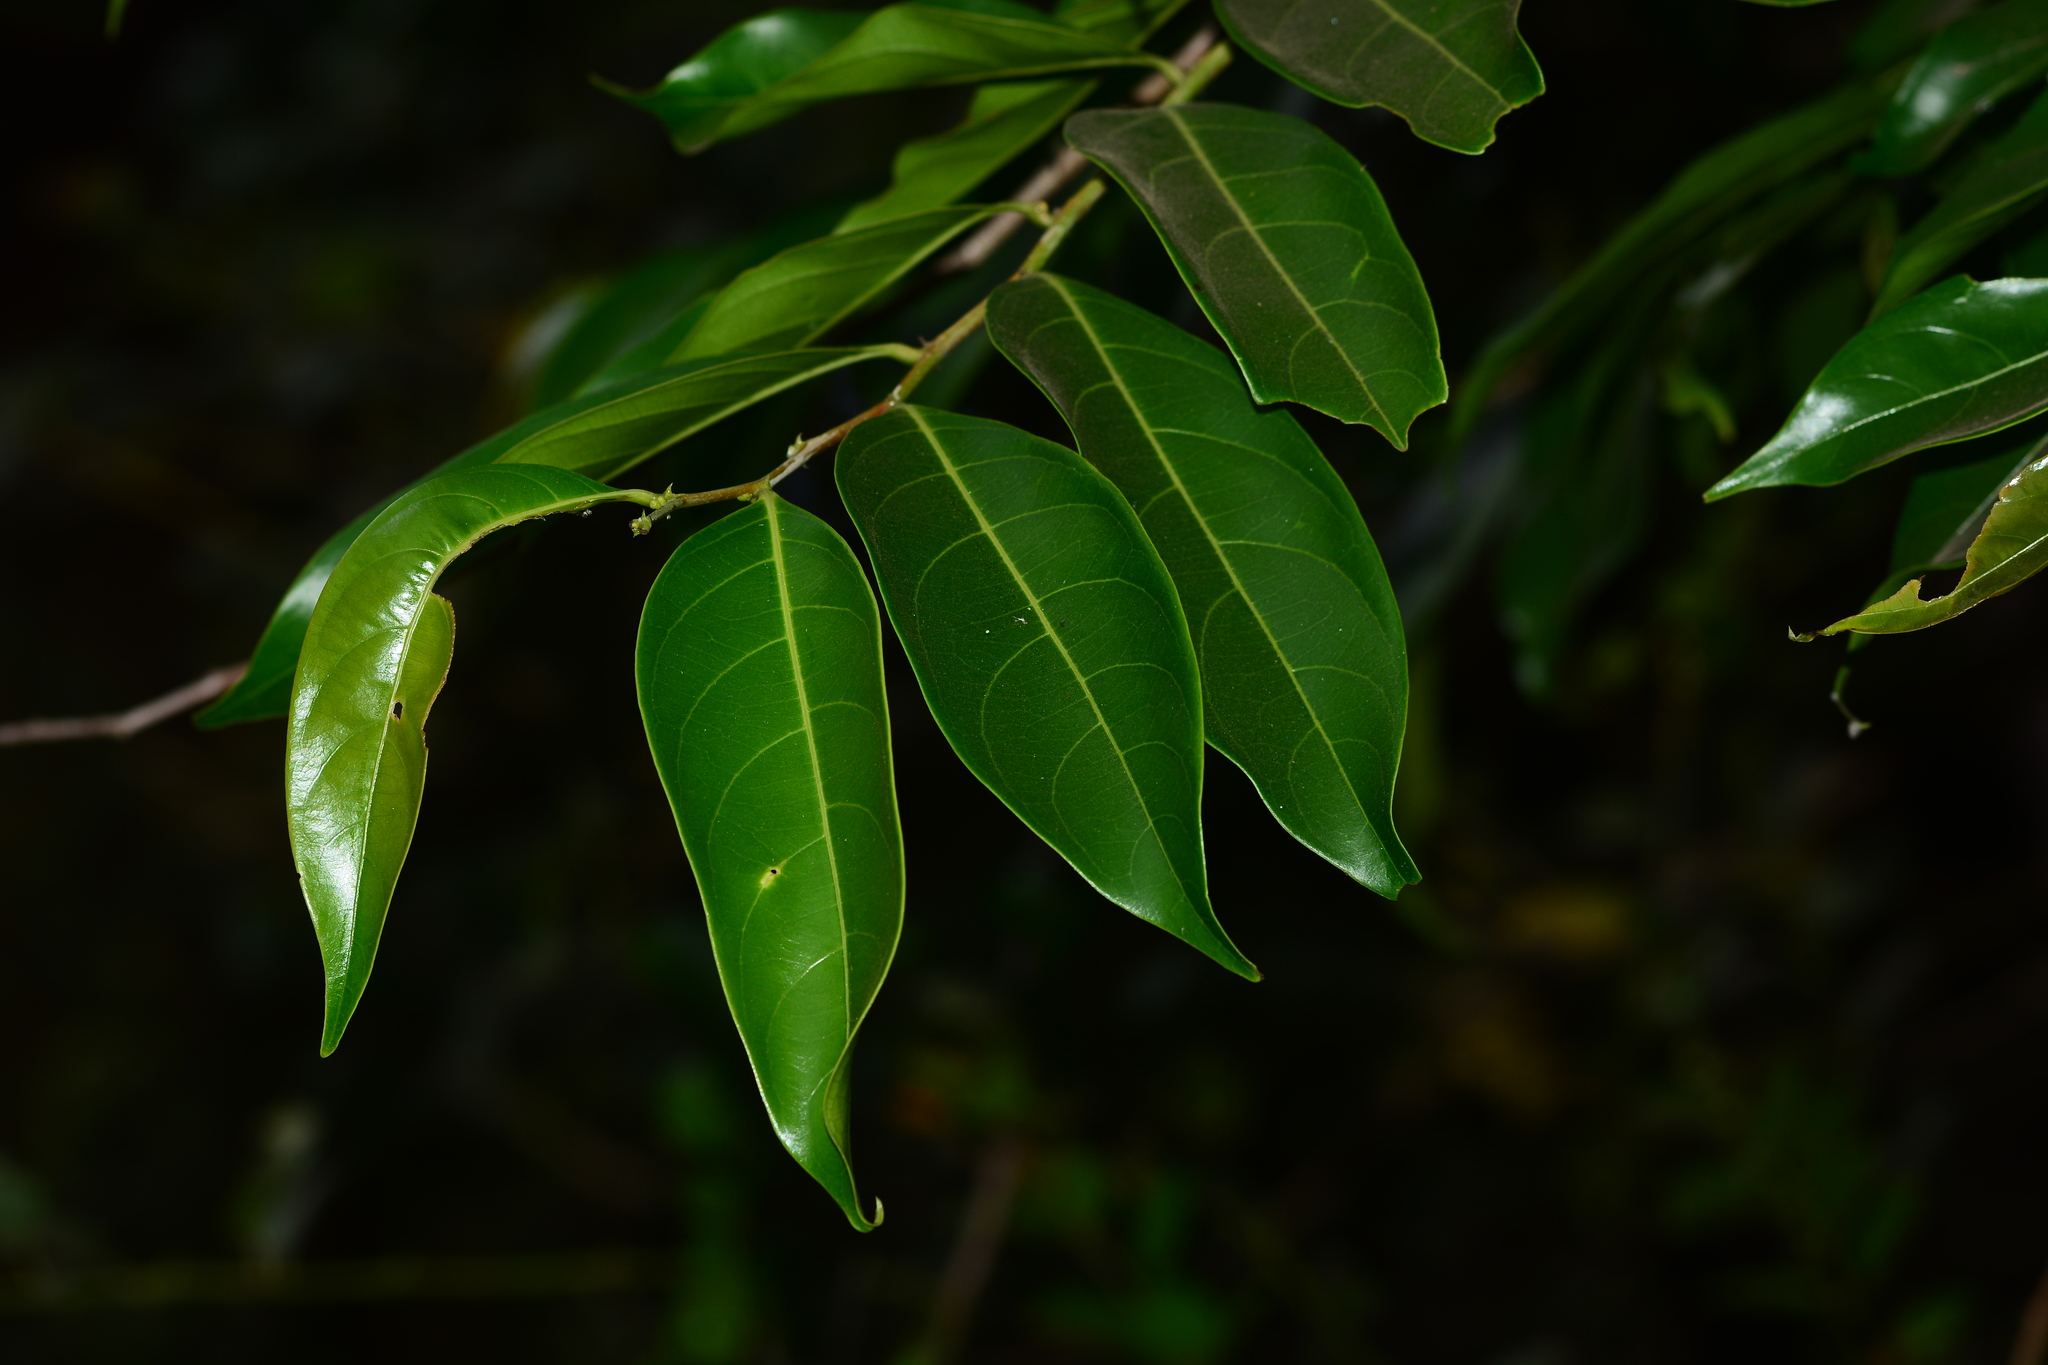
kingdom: Plantae
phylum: Tracheophyta
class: Magnoliopsida
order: Malpighiales
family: Phyllanthaceae
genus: Glochidion
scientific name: Glochidion ellipticum
